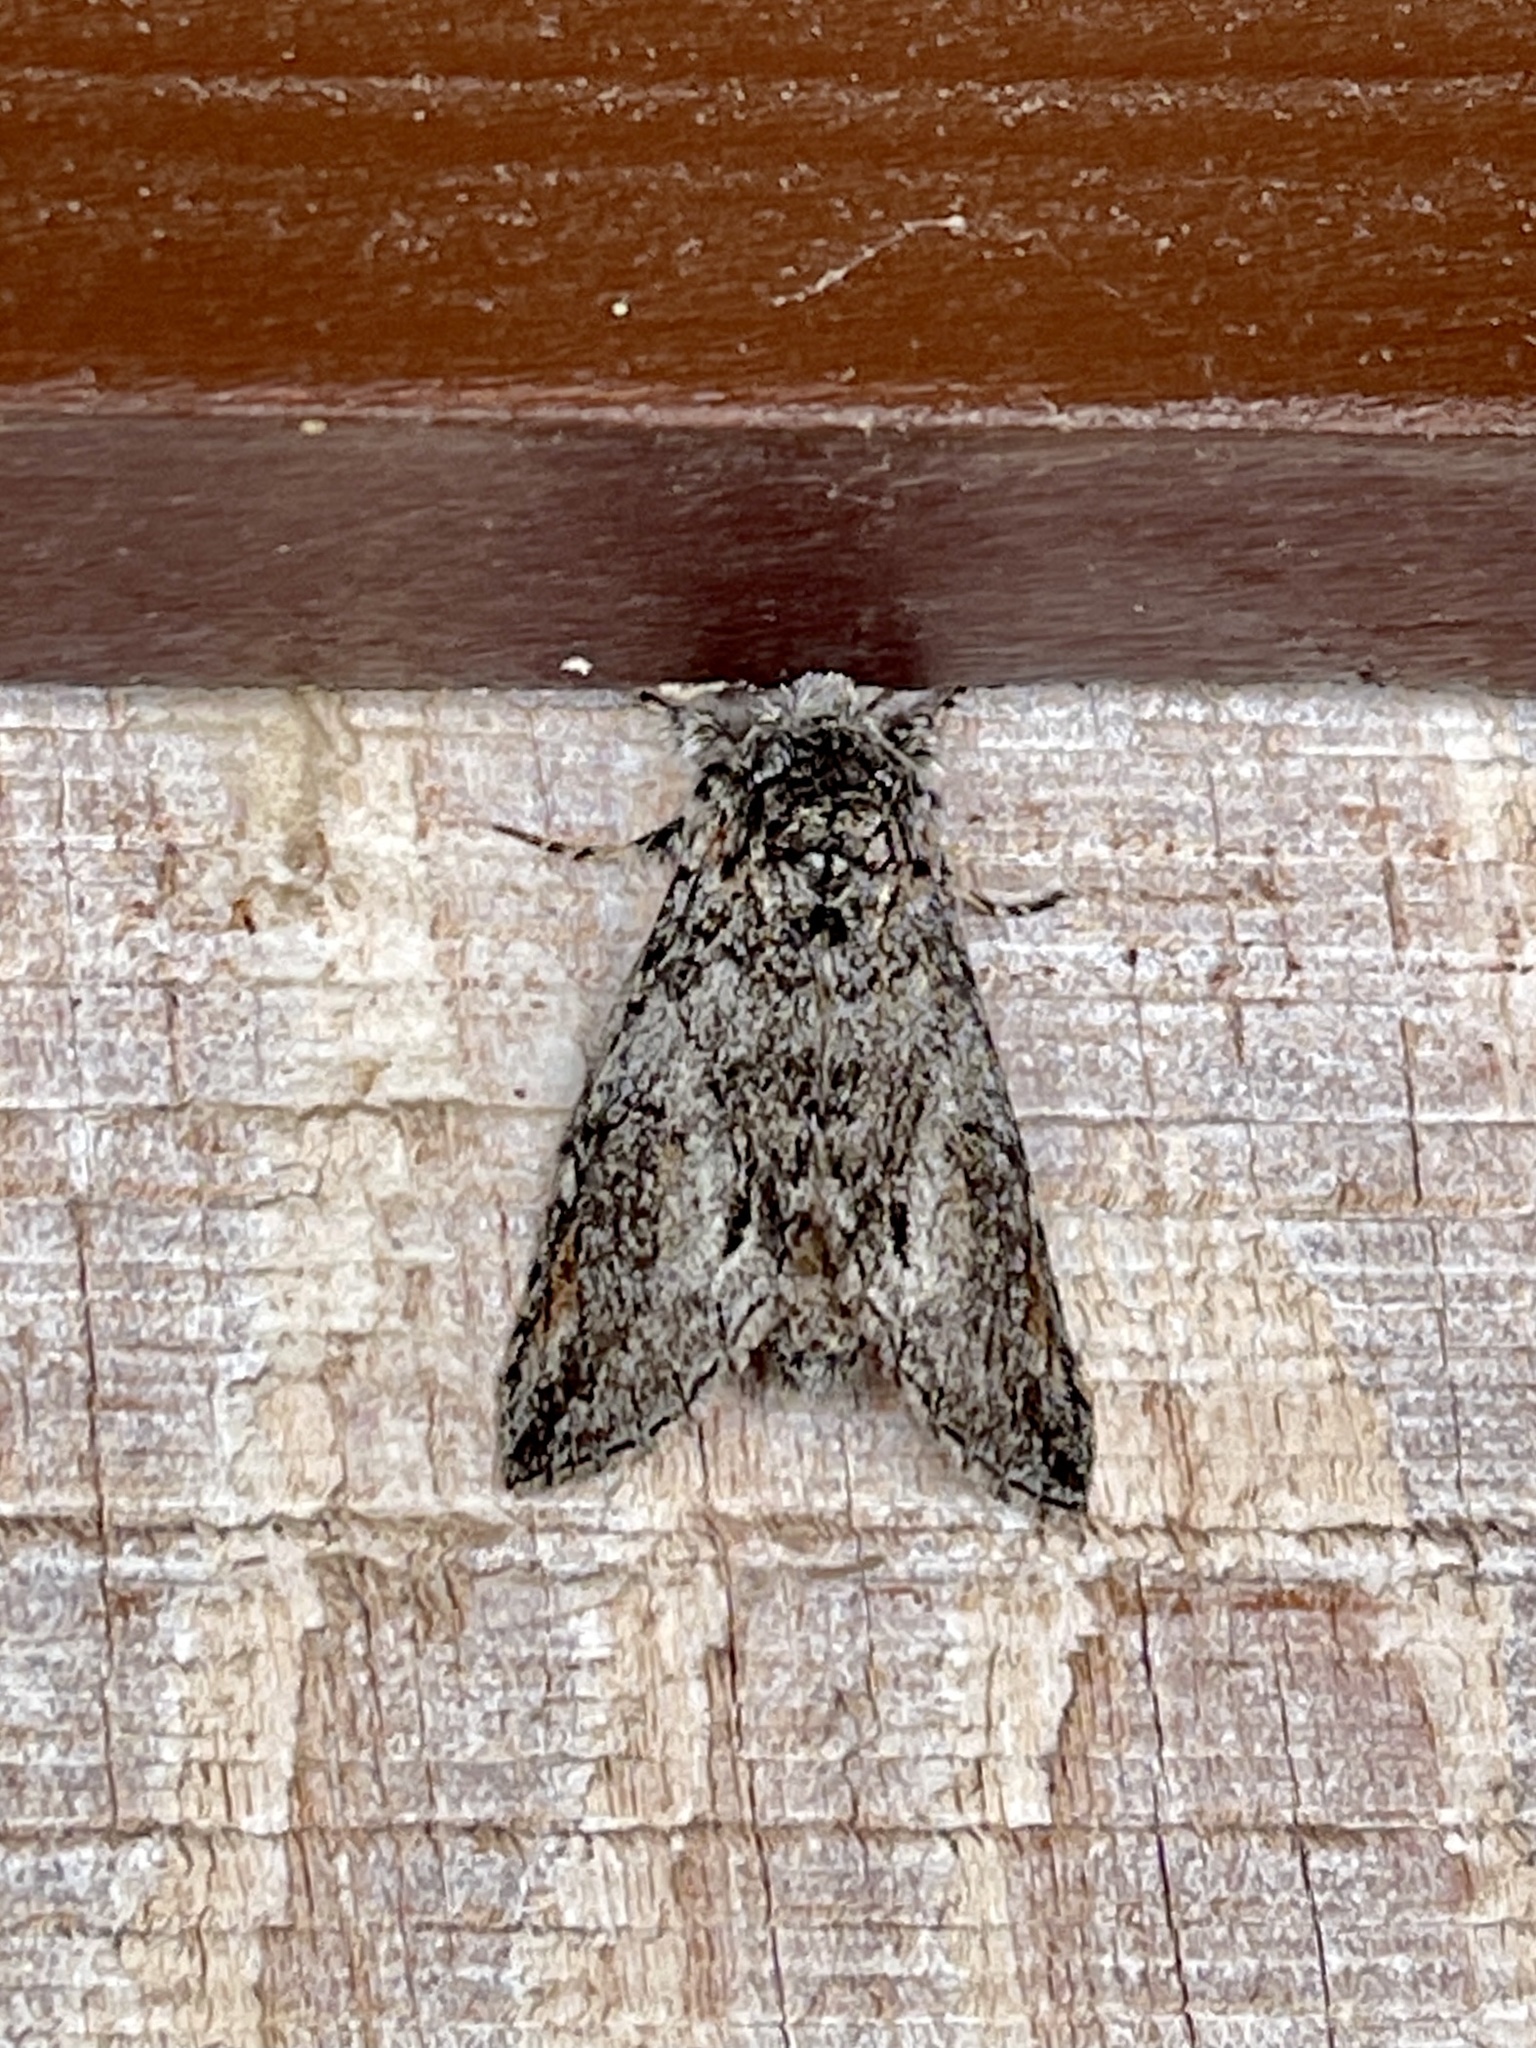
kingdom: Animalia
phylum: Arthropoda
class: Insecta
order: Lepidoptera
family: Notodontidae
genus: Macrurocampa
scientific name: Macrurocampa dorothea
